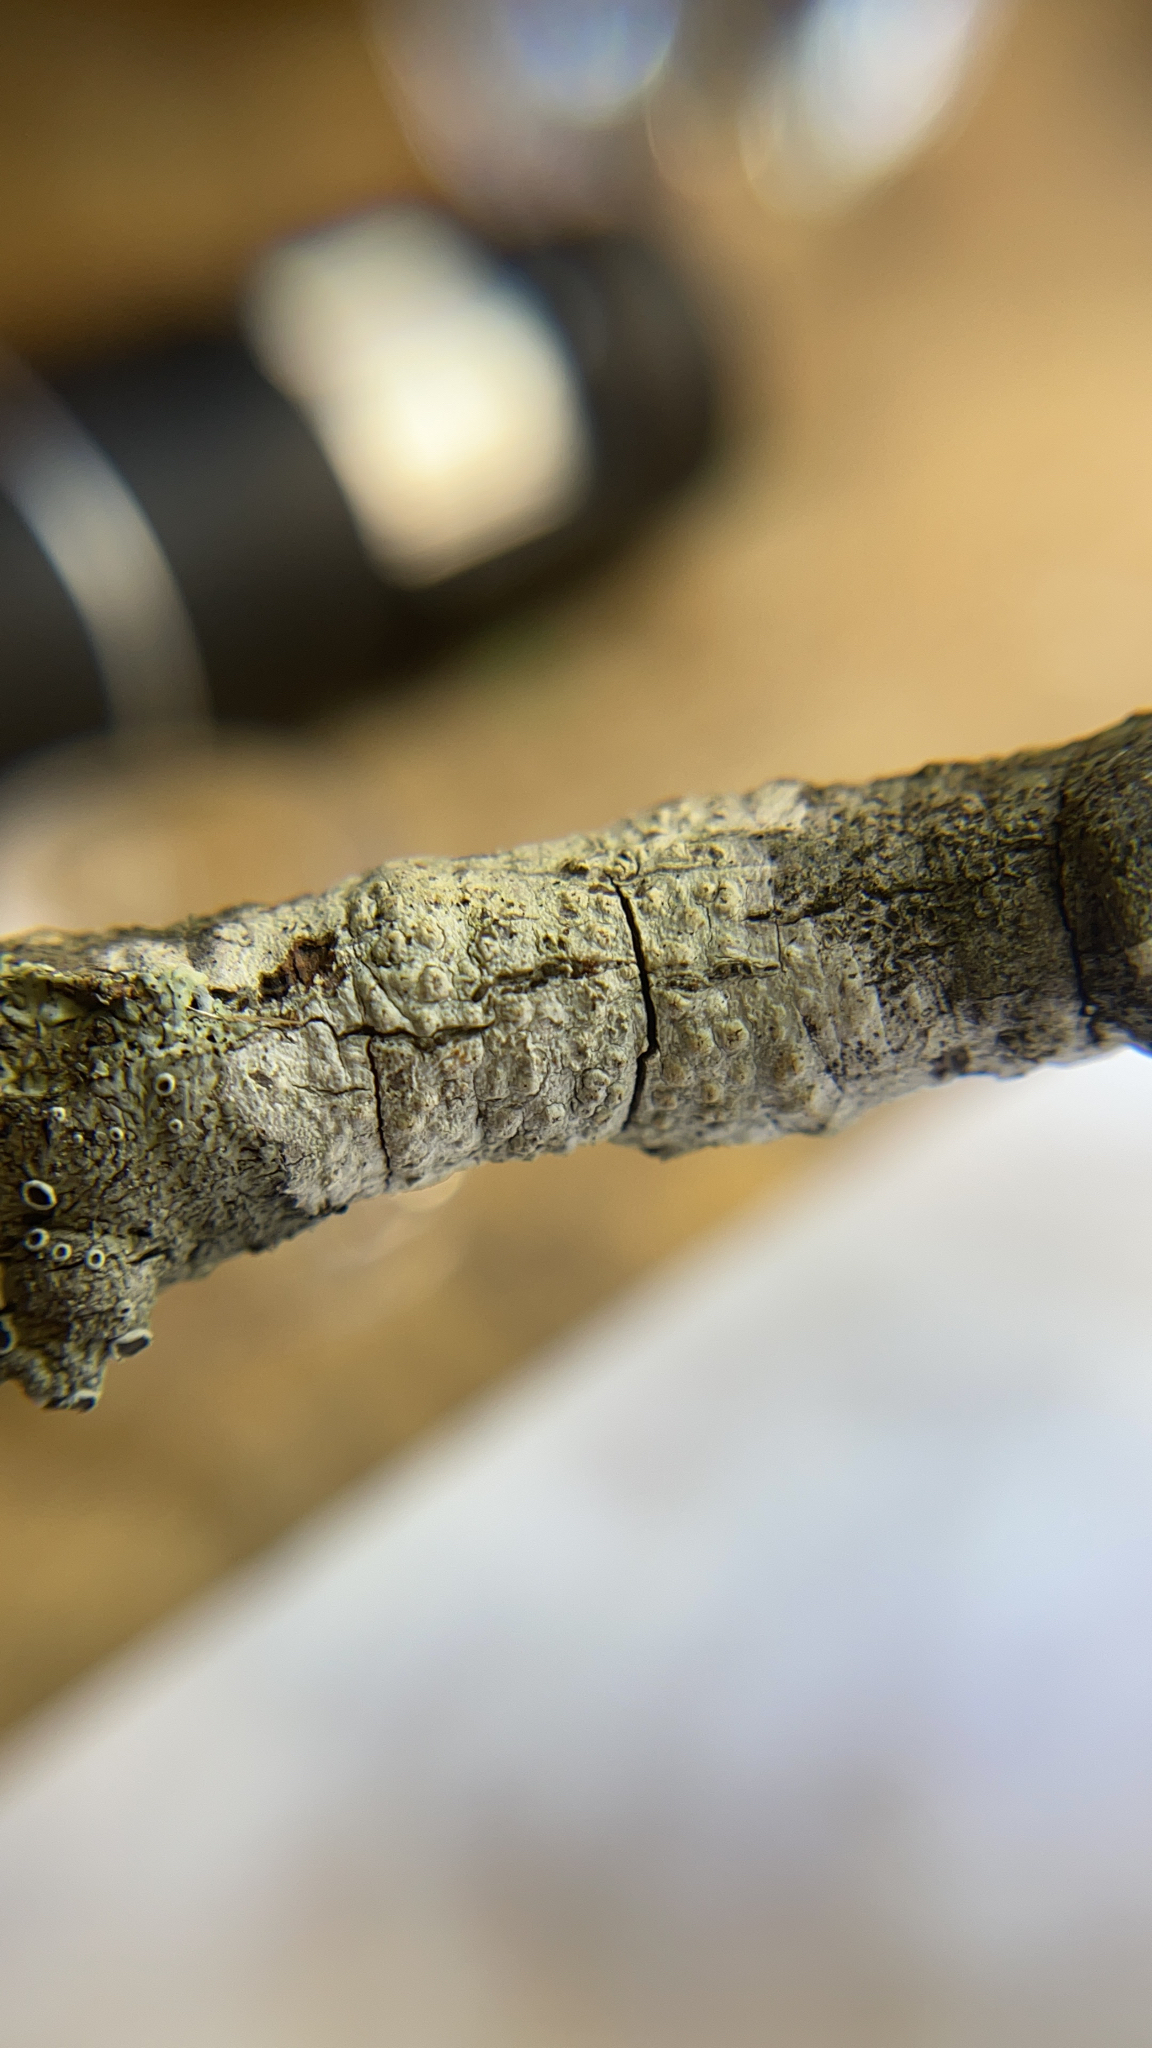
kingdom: Fungi
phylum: Ascomycota
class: Lecanoromycetes
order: Pertusariales
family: Pertusariaceae
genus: Pertusaria
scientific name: Pertusaria
